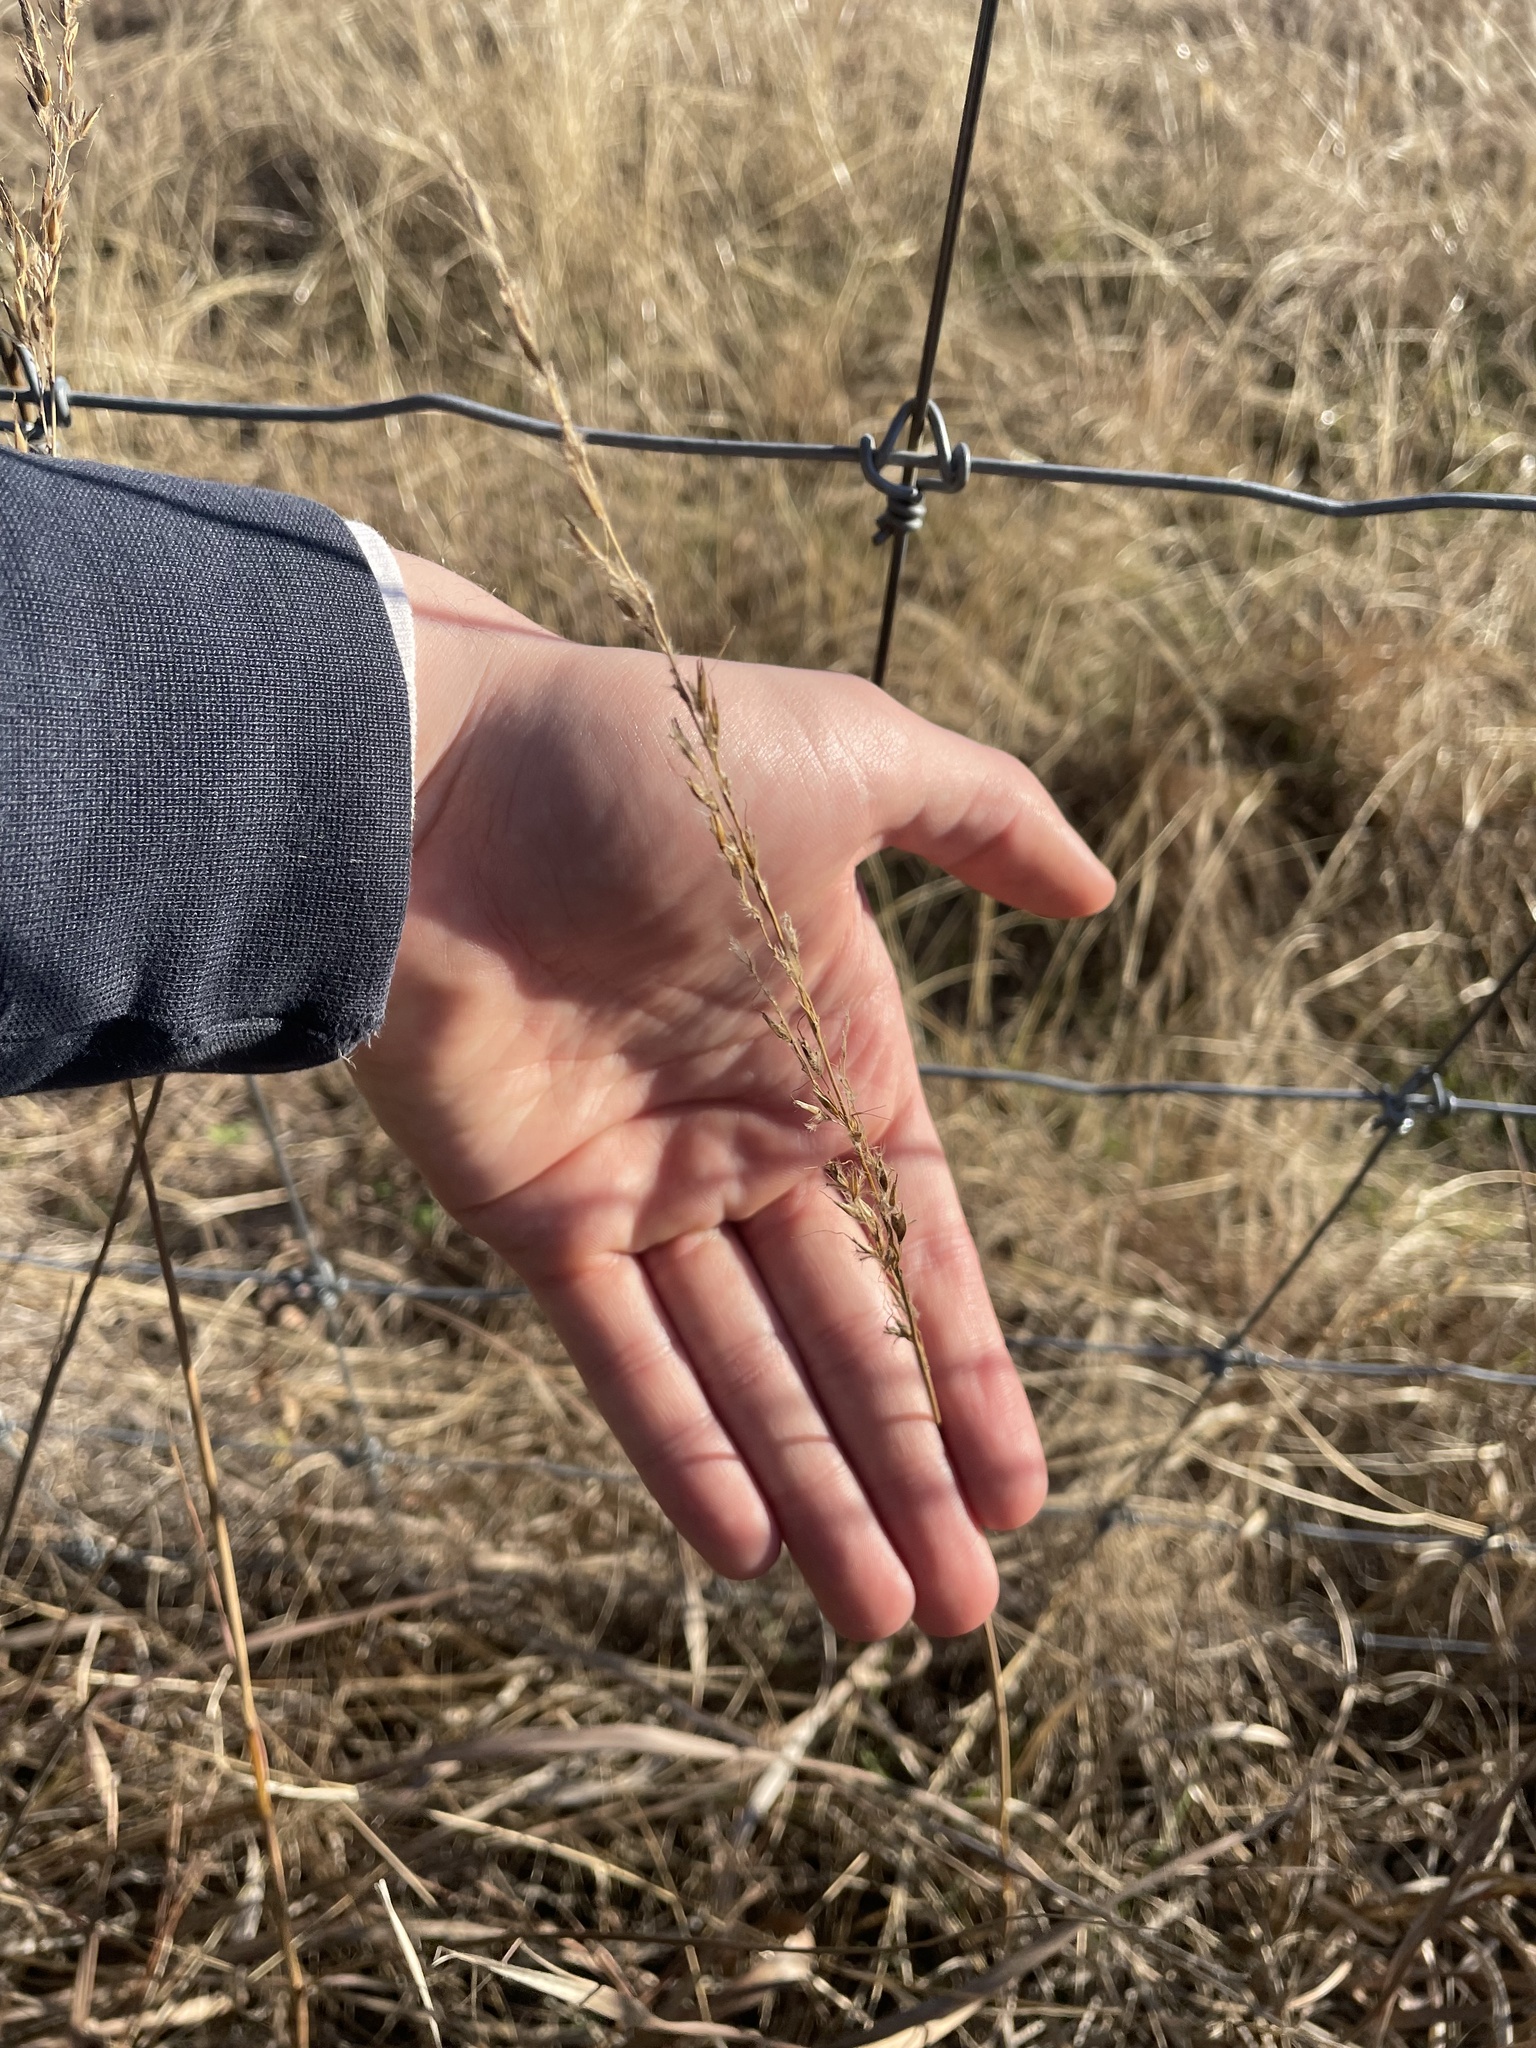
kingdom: Plantae
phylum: Tracheophyta
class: Liliopsida
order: Poales
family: Poaceae
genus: Sorghastrum
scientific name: Sorghastrum nutans
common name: Indian grass
